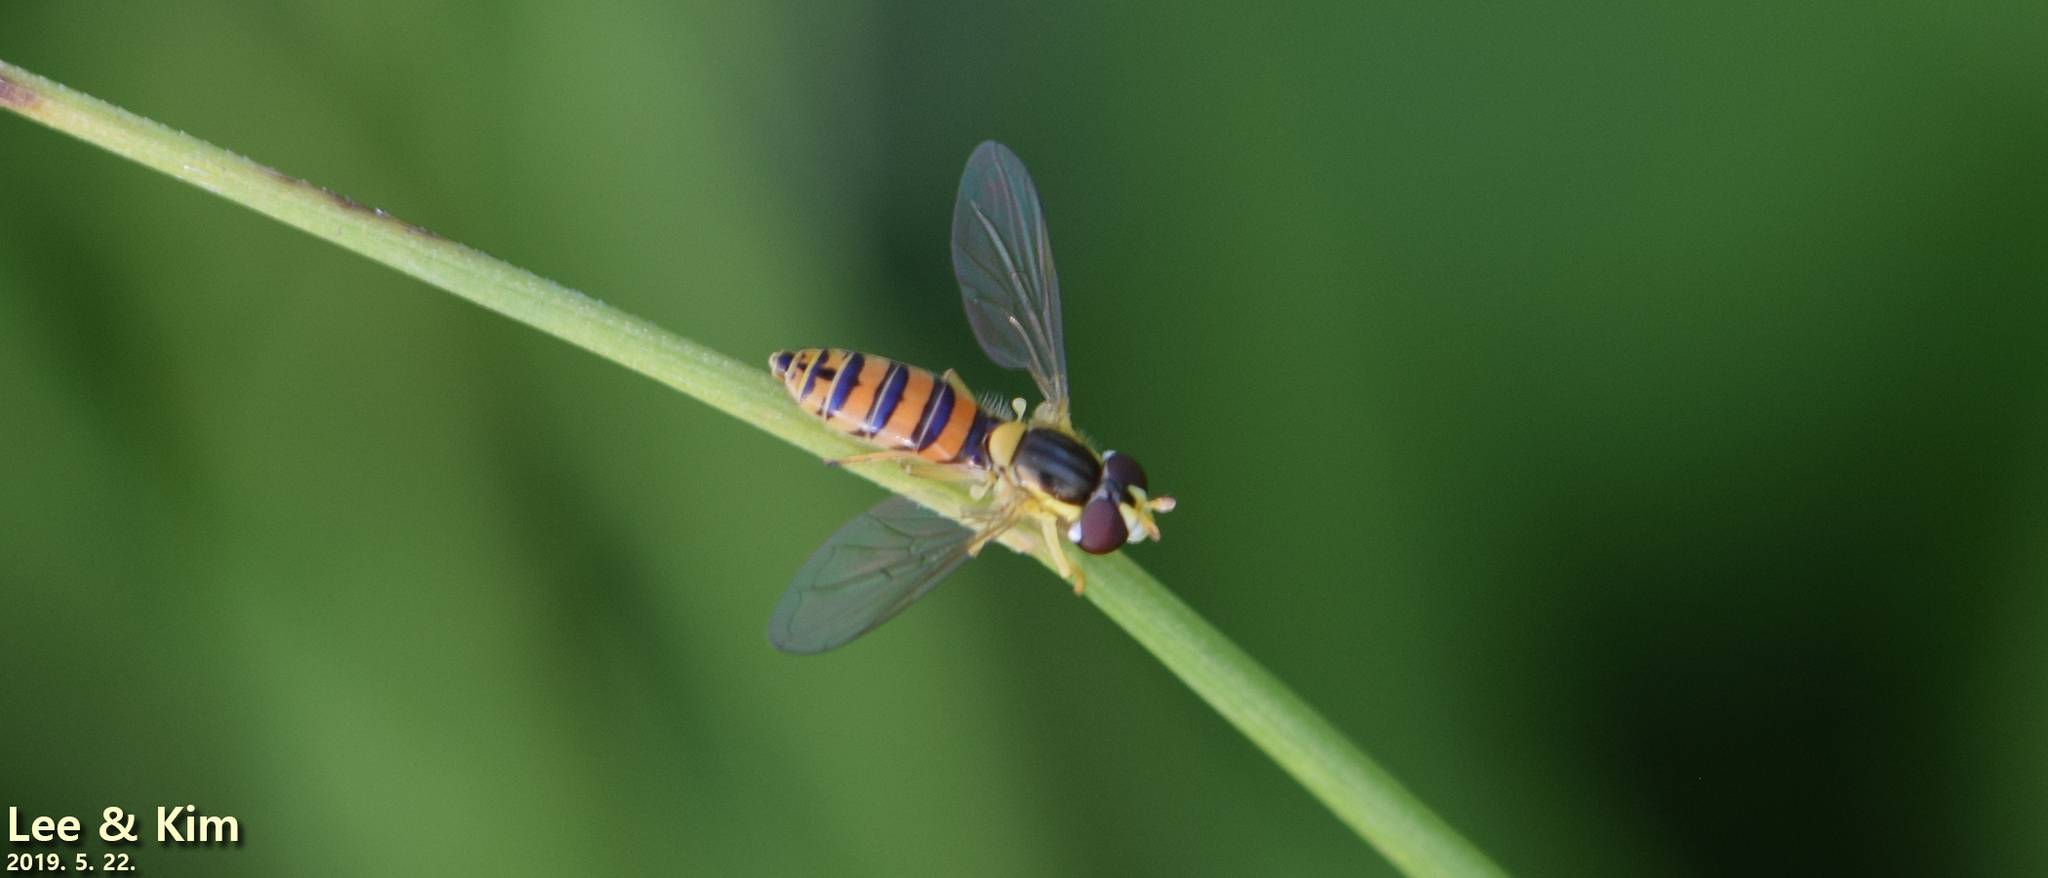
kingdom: Animalia
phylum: Arthropoda
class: Insecta
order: Diptera
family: Syrphidae
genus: Sphaerophoria
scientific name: Sphaerophoria scripta
